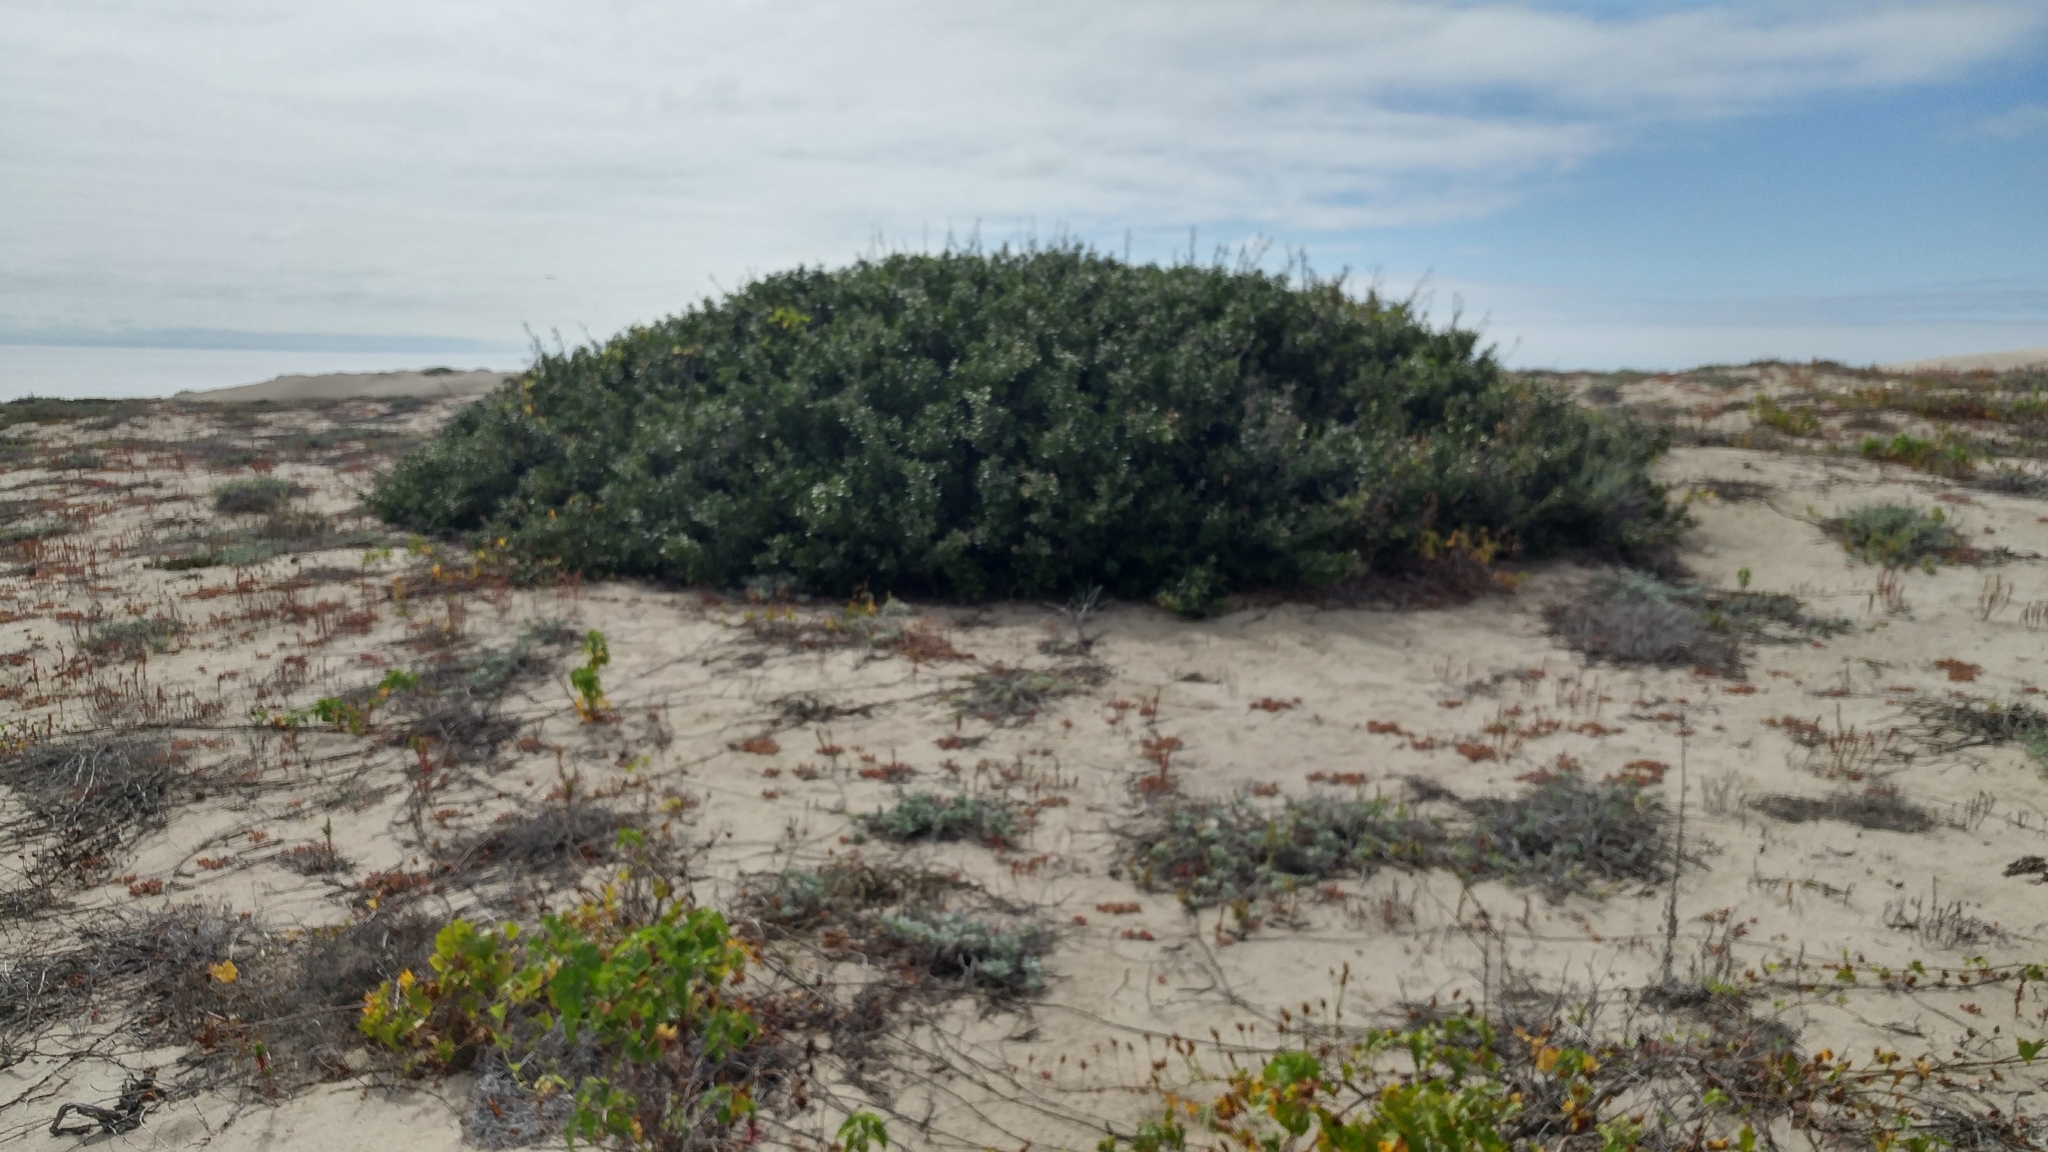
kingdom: Plantae
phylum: Tracheophyta
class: Magnoliopsida
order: Sapindales
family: Anacardiaceae
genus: Rhus
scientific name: Rhus integrifolia
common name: Lemonade sumac
